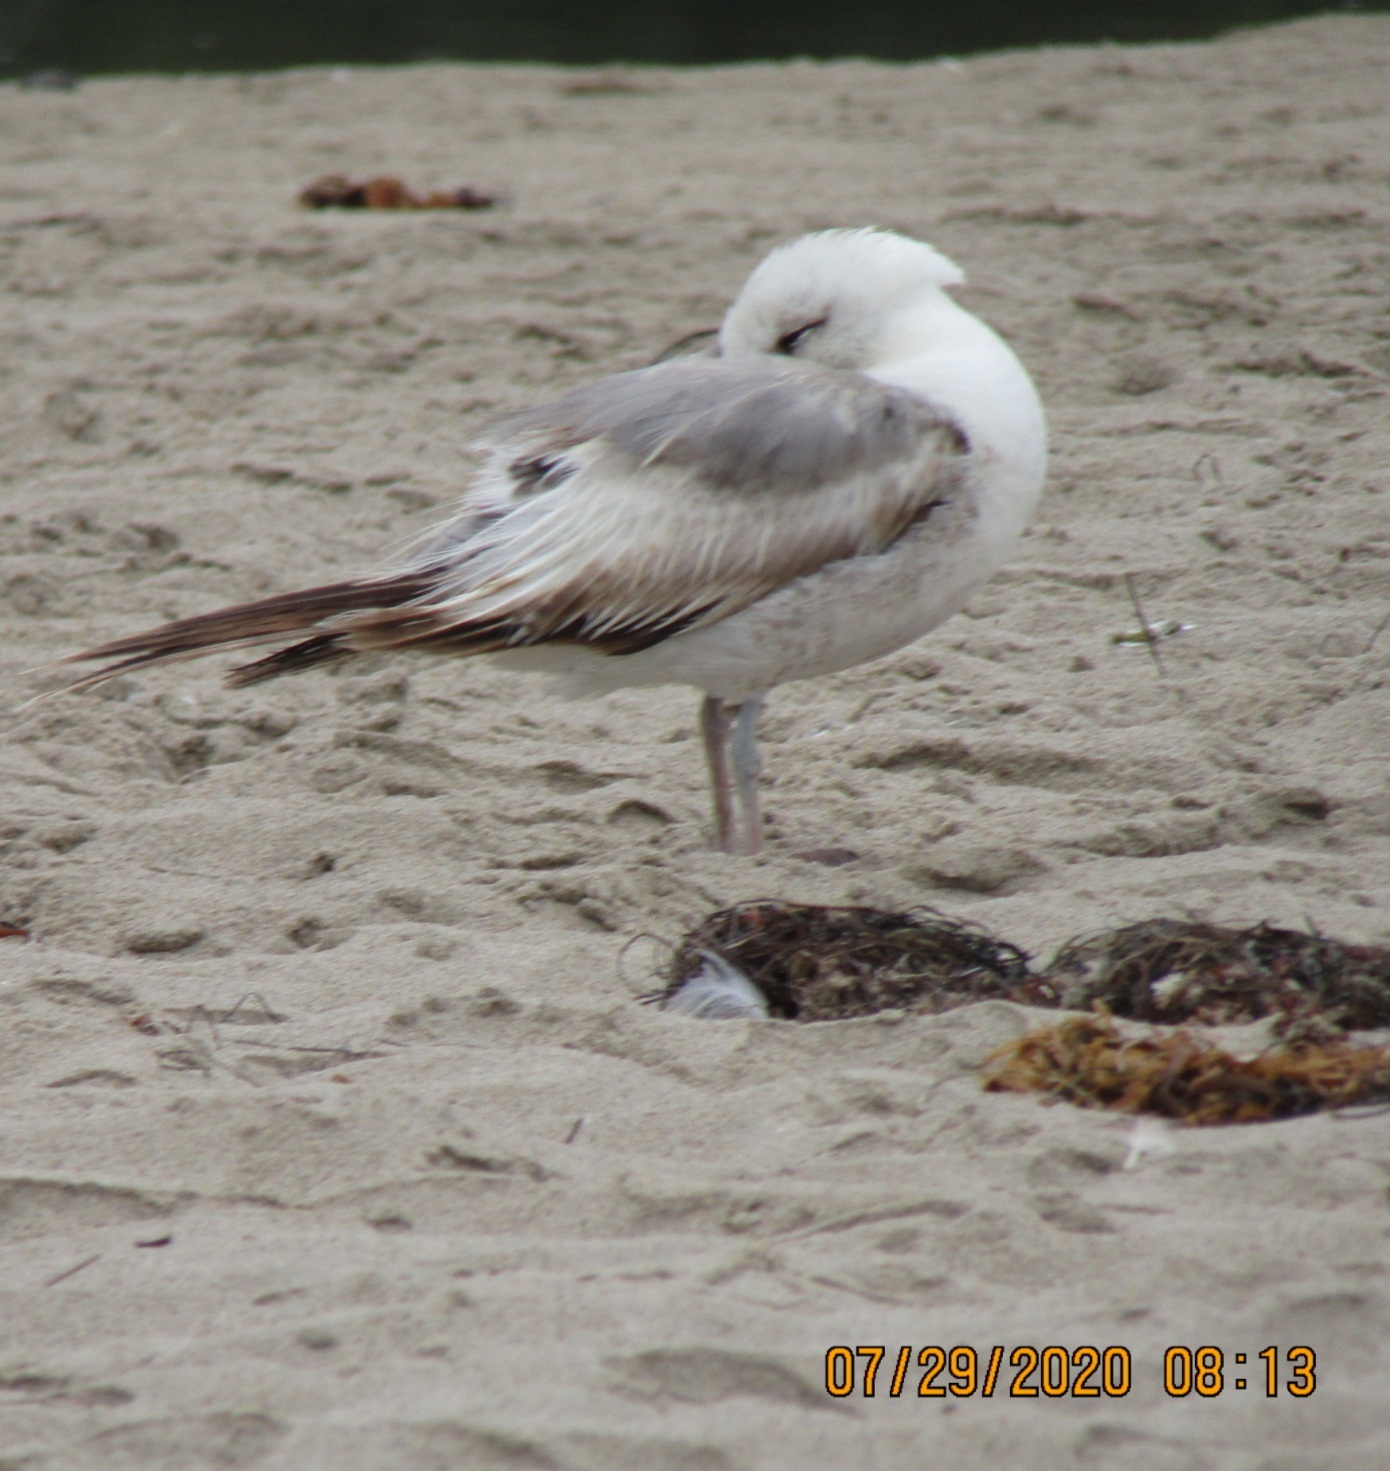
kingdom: Animalia
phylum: Chordata
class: Aves
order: Charadriiformes
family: Laridae
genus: Larus
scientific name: Larus californicus
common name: California gull
